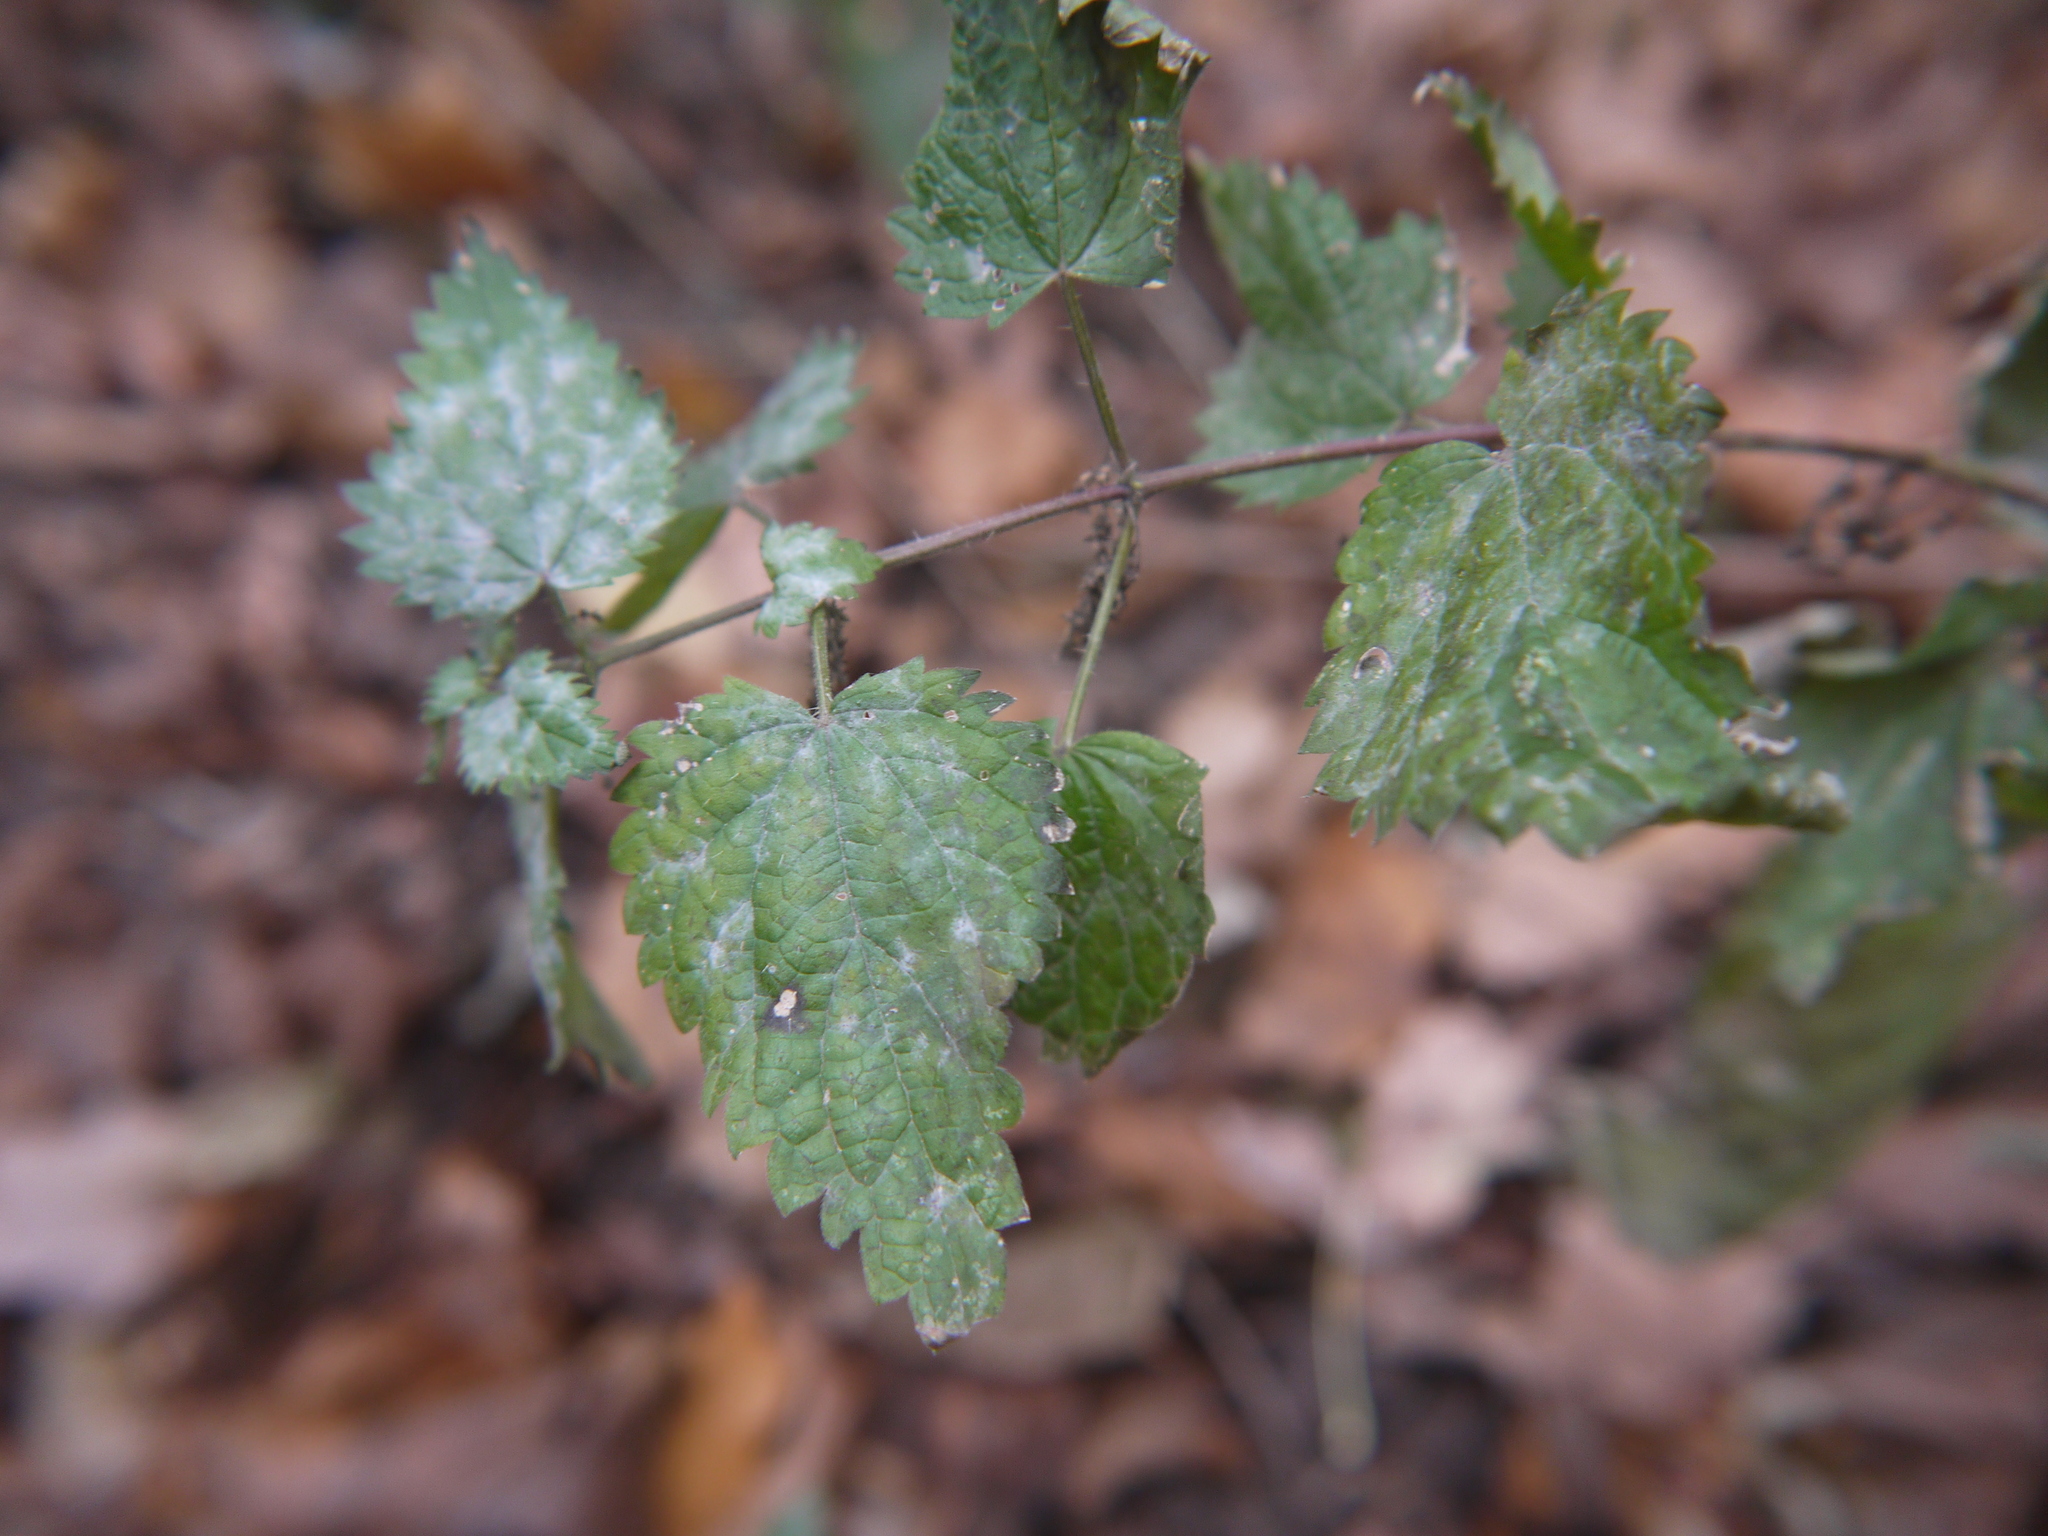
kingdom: Plantae
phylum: Tracheophyta
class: Magnoliopsida
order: Rosales
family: Urticaceae
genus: Urtica
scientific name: Urtica dioica
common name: Common nettle
